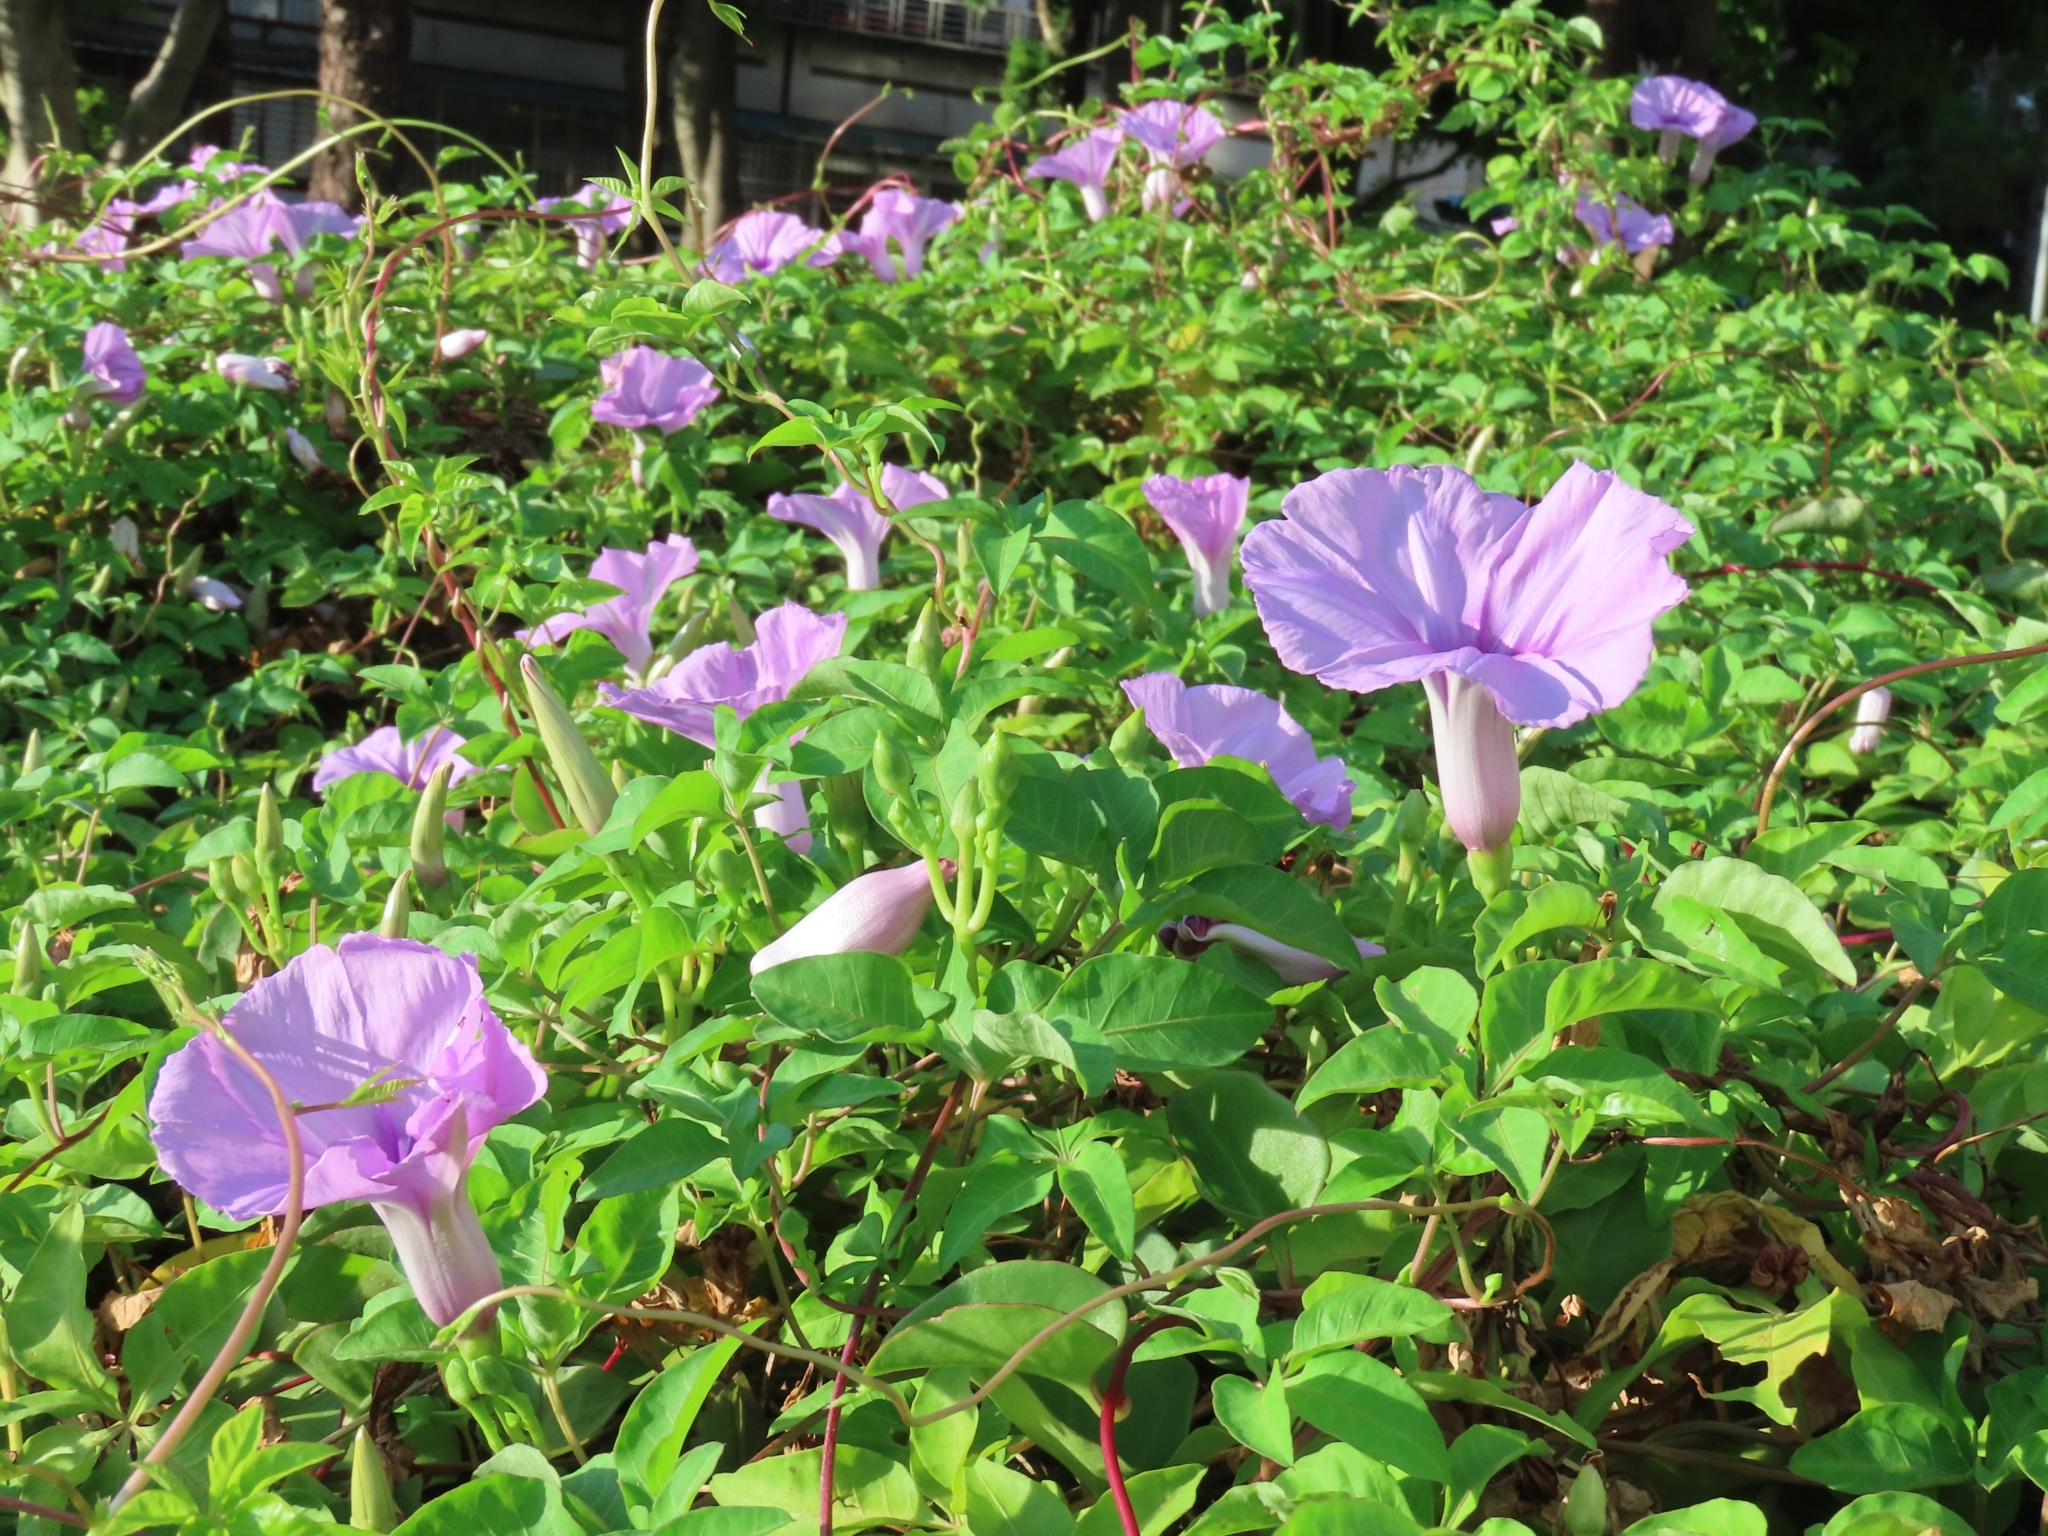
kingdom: Plantae
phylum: Tracheophyta
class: Magnoliopsida
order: Solanales
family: Convolvulaceae
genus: Ipomoea
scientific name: Ipomoea cairica
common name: Mile a minute vine
